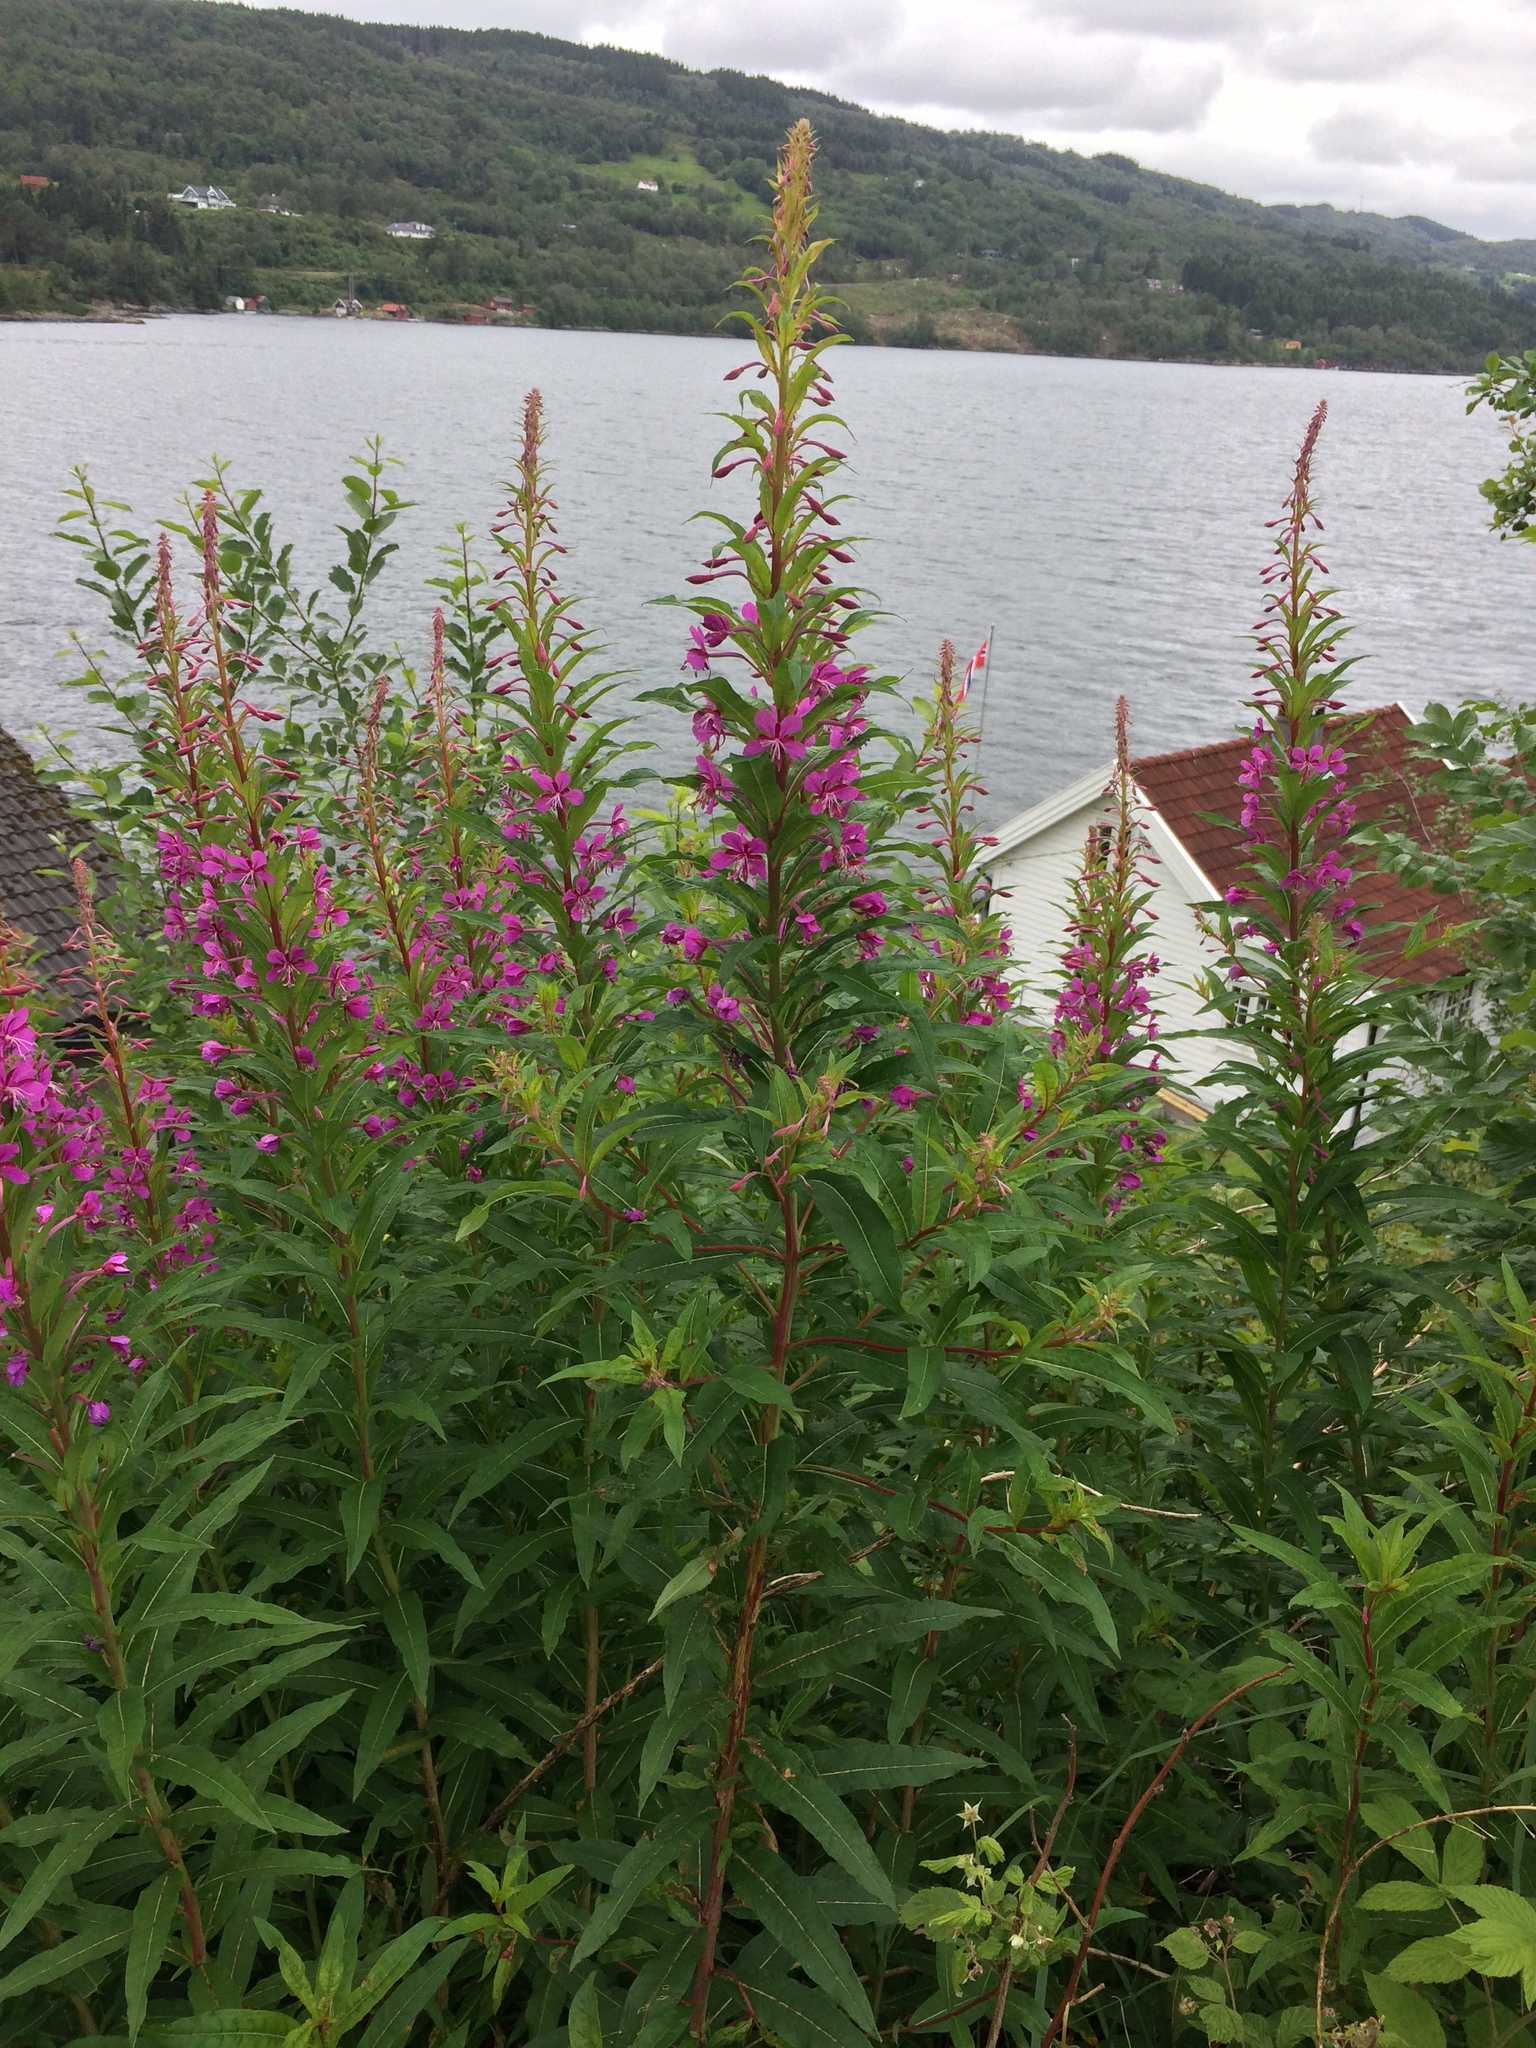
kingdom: Plantae
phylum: Tracheophyta
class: Magnoliopsida
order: Myrtales
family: Onagraceae
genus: Chamaenerion
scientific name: Chamaenerion angustifolium
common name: Fireweed
